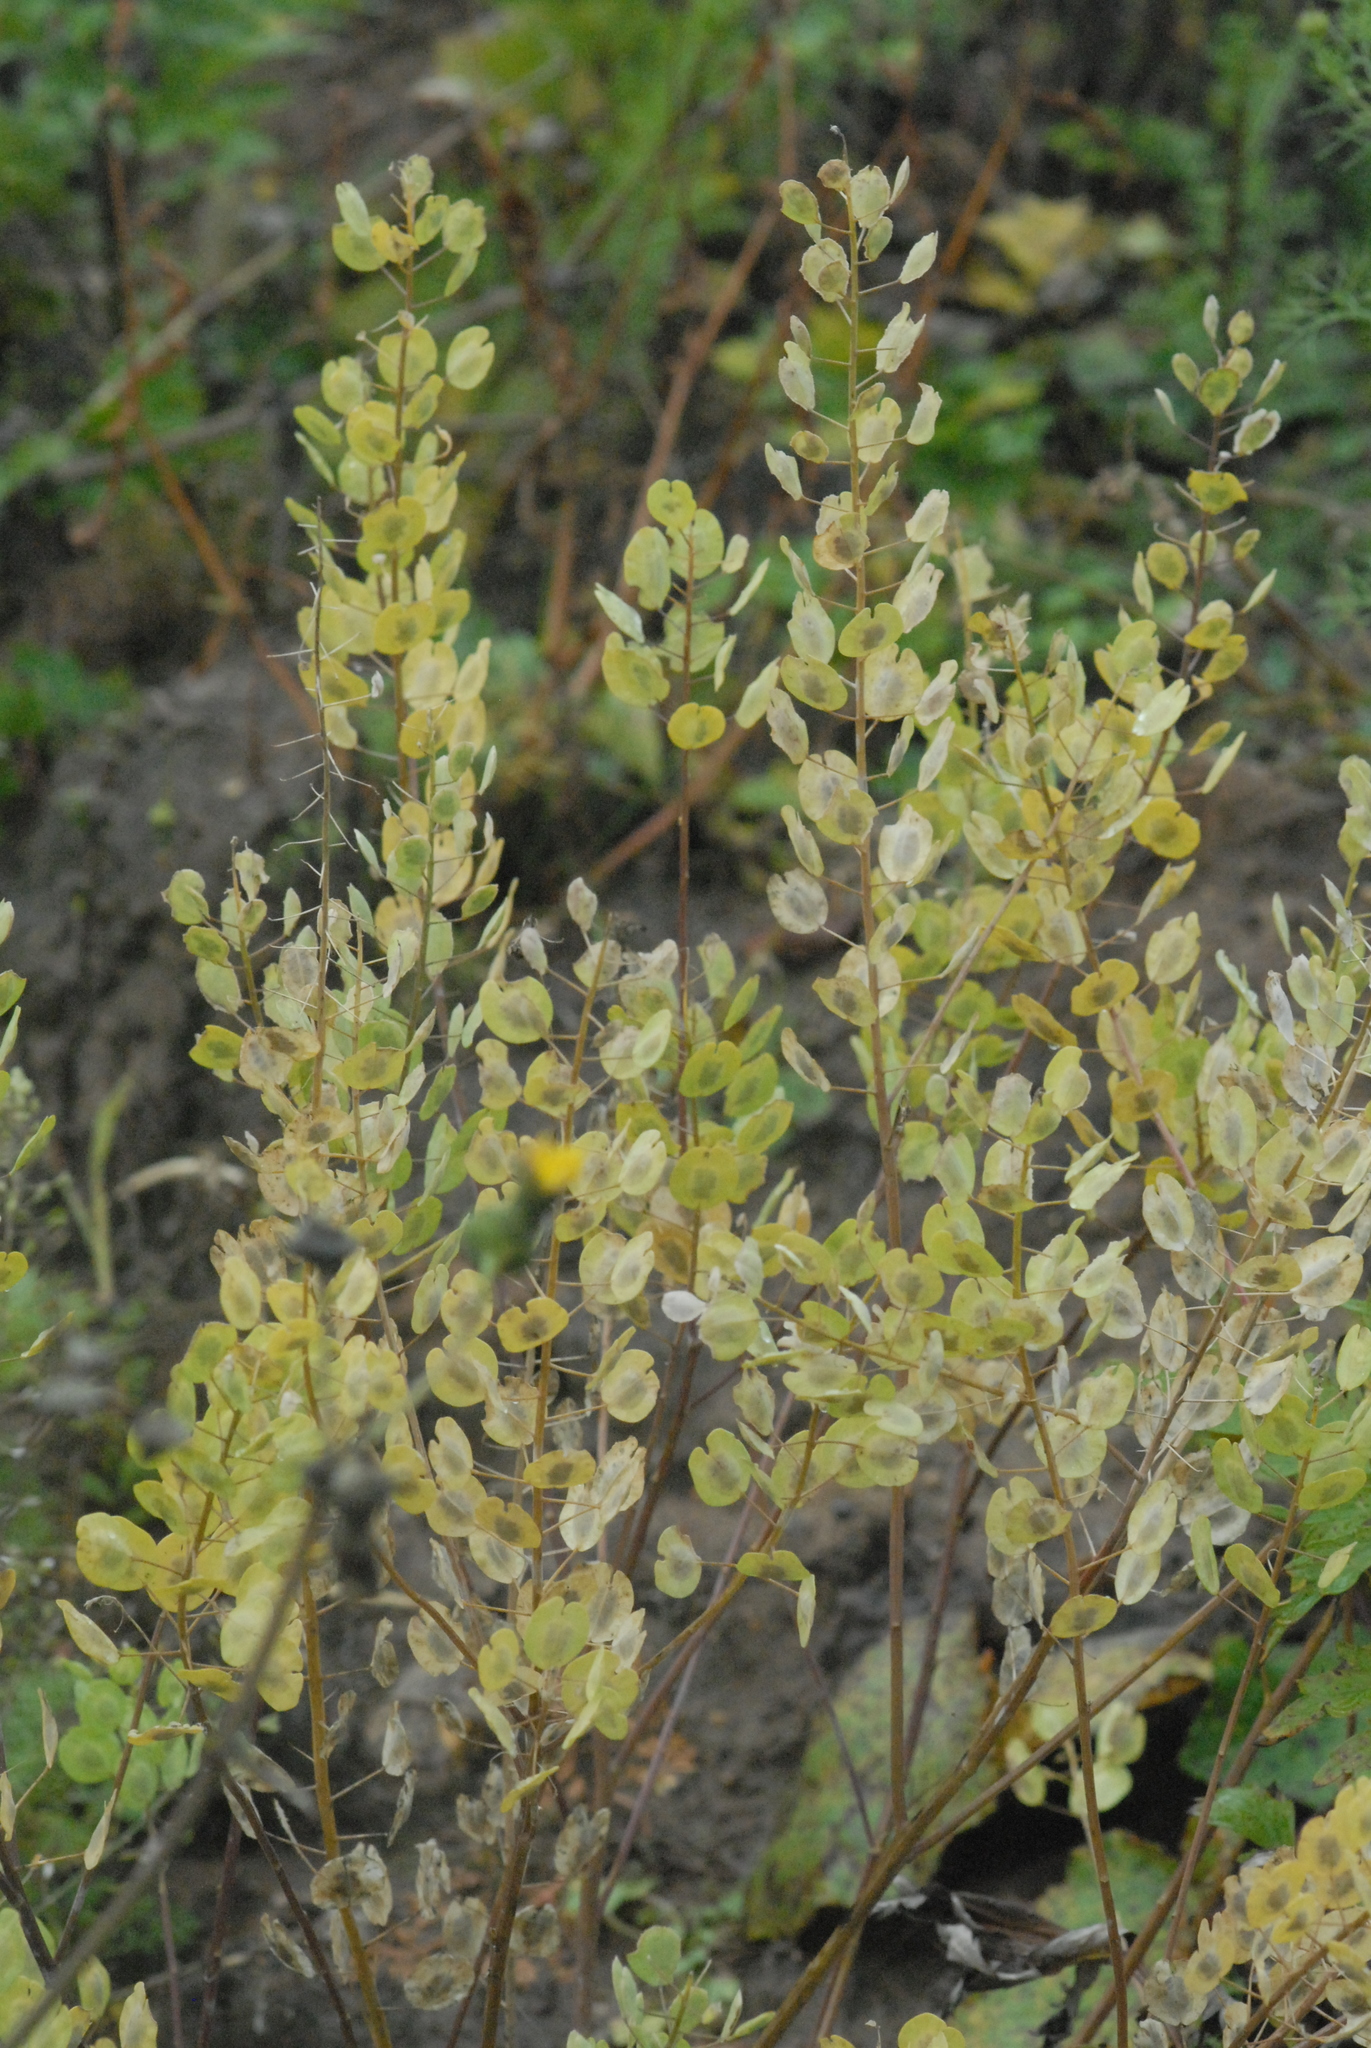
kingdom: Plantae
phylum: Tracheophyta
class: Magnoliopsida
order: Brassicales
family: Brassicaceae
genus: Thlaspi
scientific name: Thlaspi arvense
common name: Field pennycress
